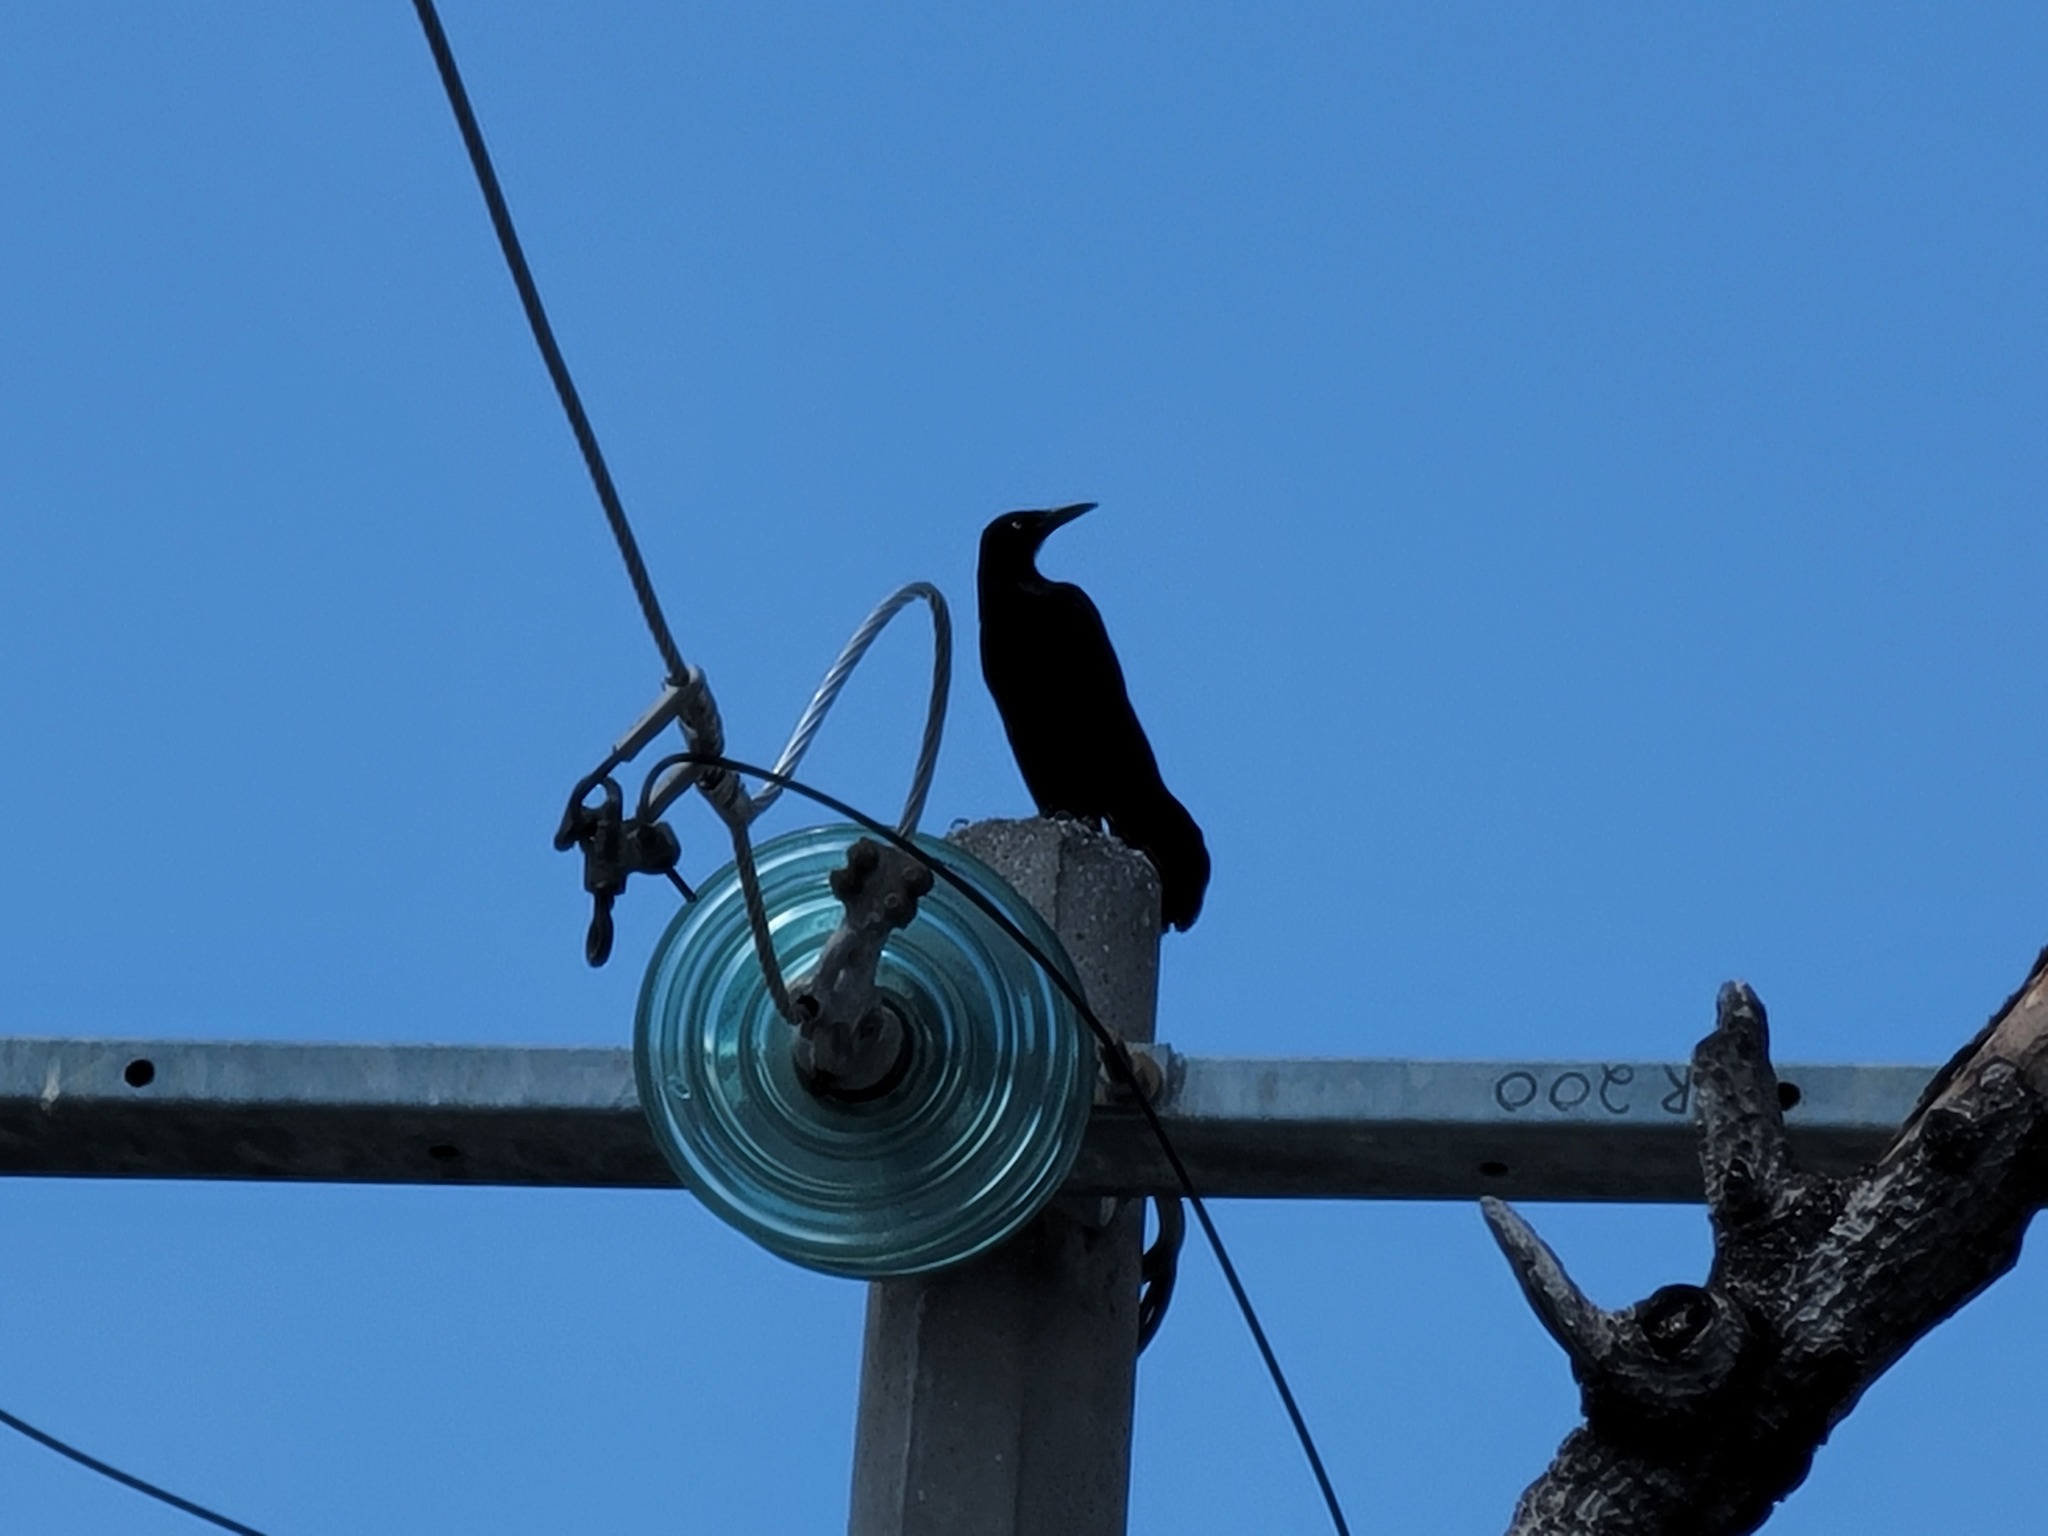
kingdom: Animalia
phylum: Chordata
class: Aves
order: Passeriformes
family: Icteridae
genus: Quiscalus
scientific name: Quiscalus mexicanus
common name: Great-tailed grackle
